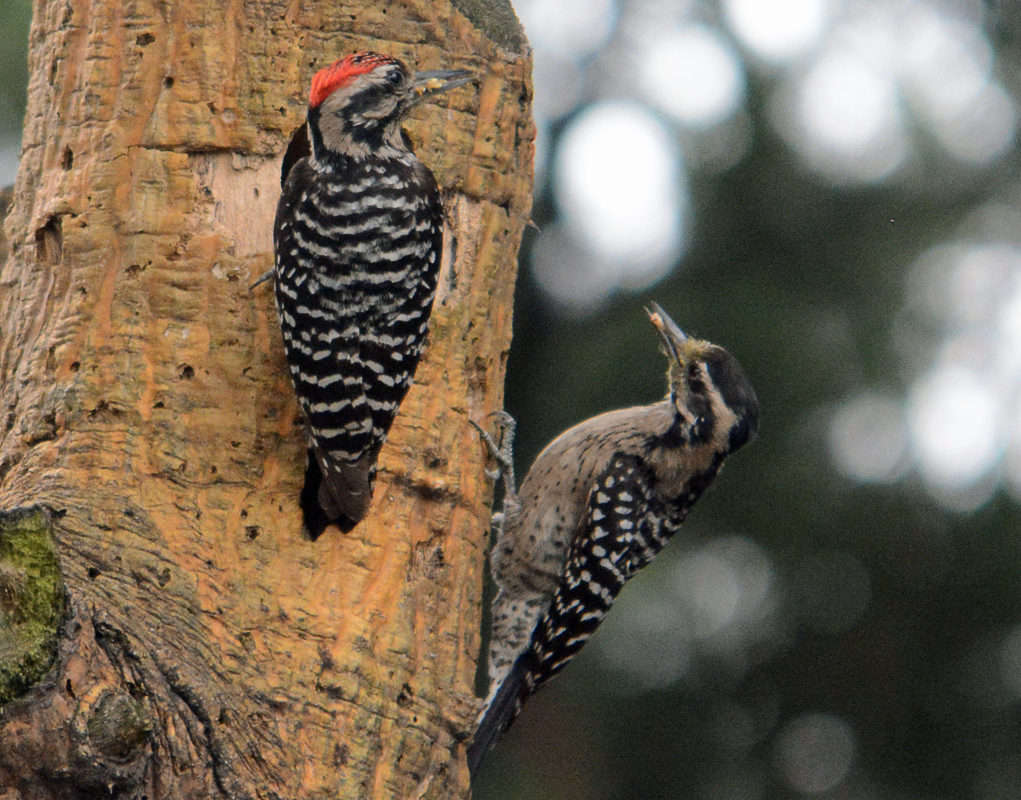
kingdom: Animalia
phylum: Chordata
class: Aves
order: Piciformes
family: Picidae
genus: Dryobates
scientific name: Dryobates scalaris
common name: Ladder-backed woodpecker
